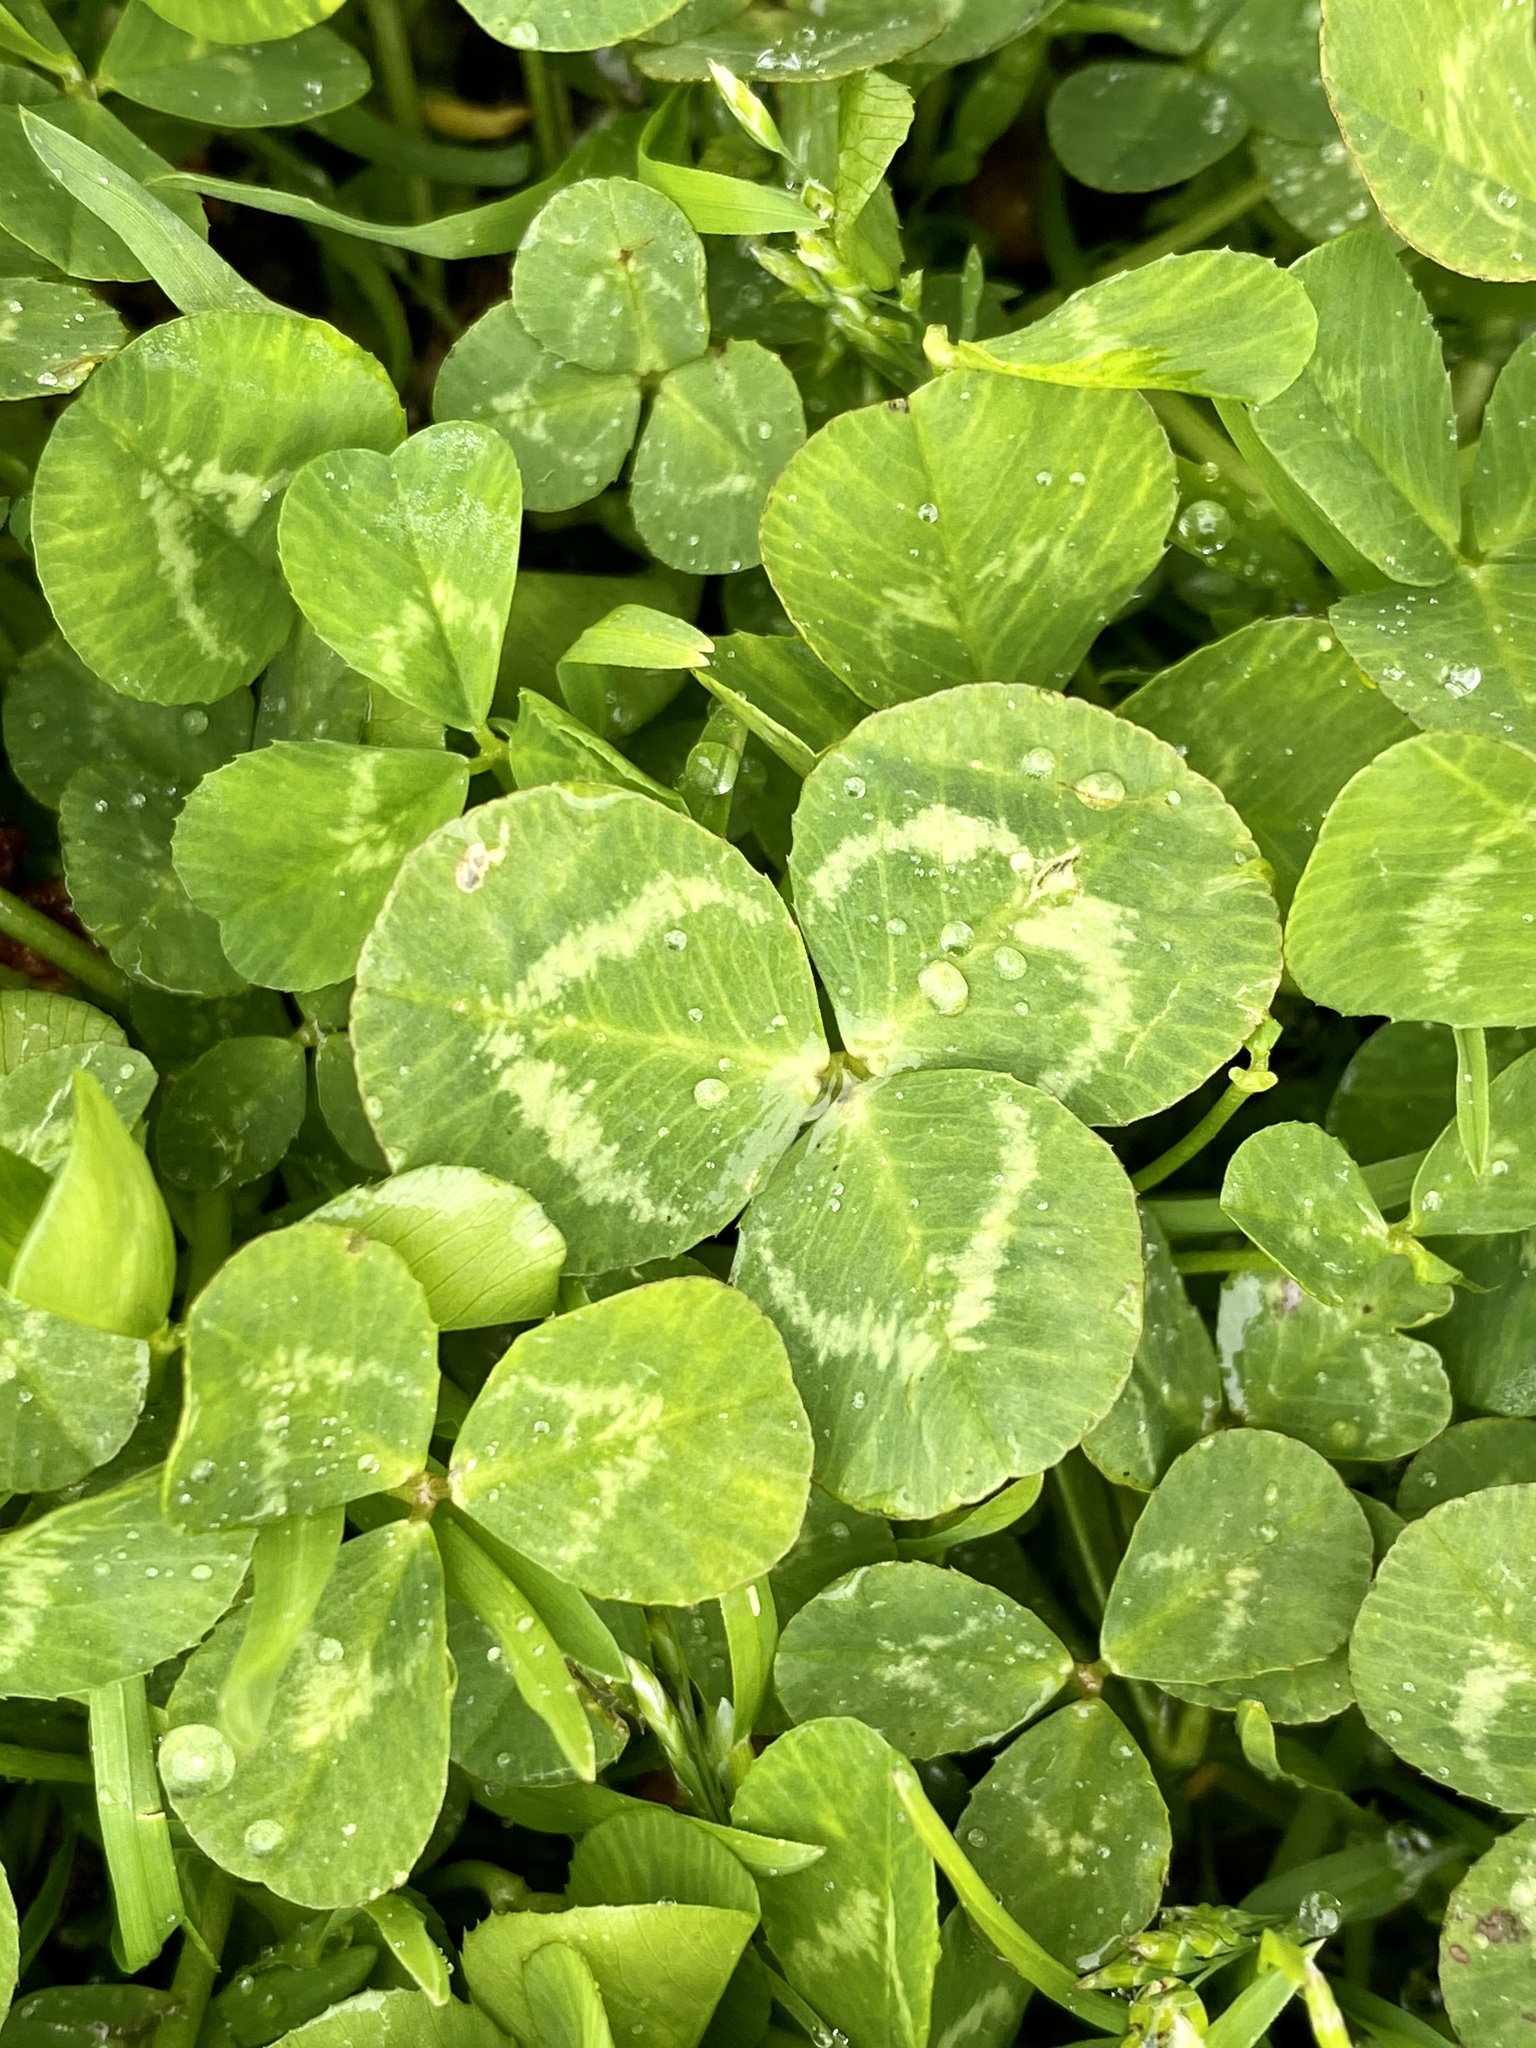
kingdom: Plantae
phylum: Tracheophyta
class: Magnoliopsida
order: Fabales
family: Fabaceae
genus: Trifolium
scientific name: Trifolium repens
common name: White clover
